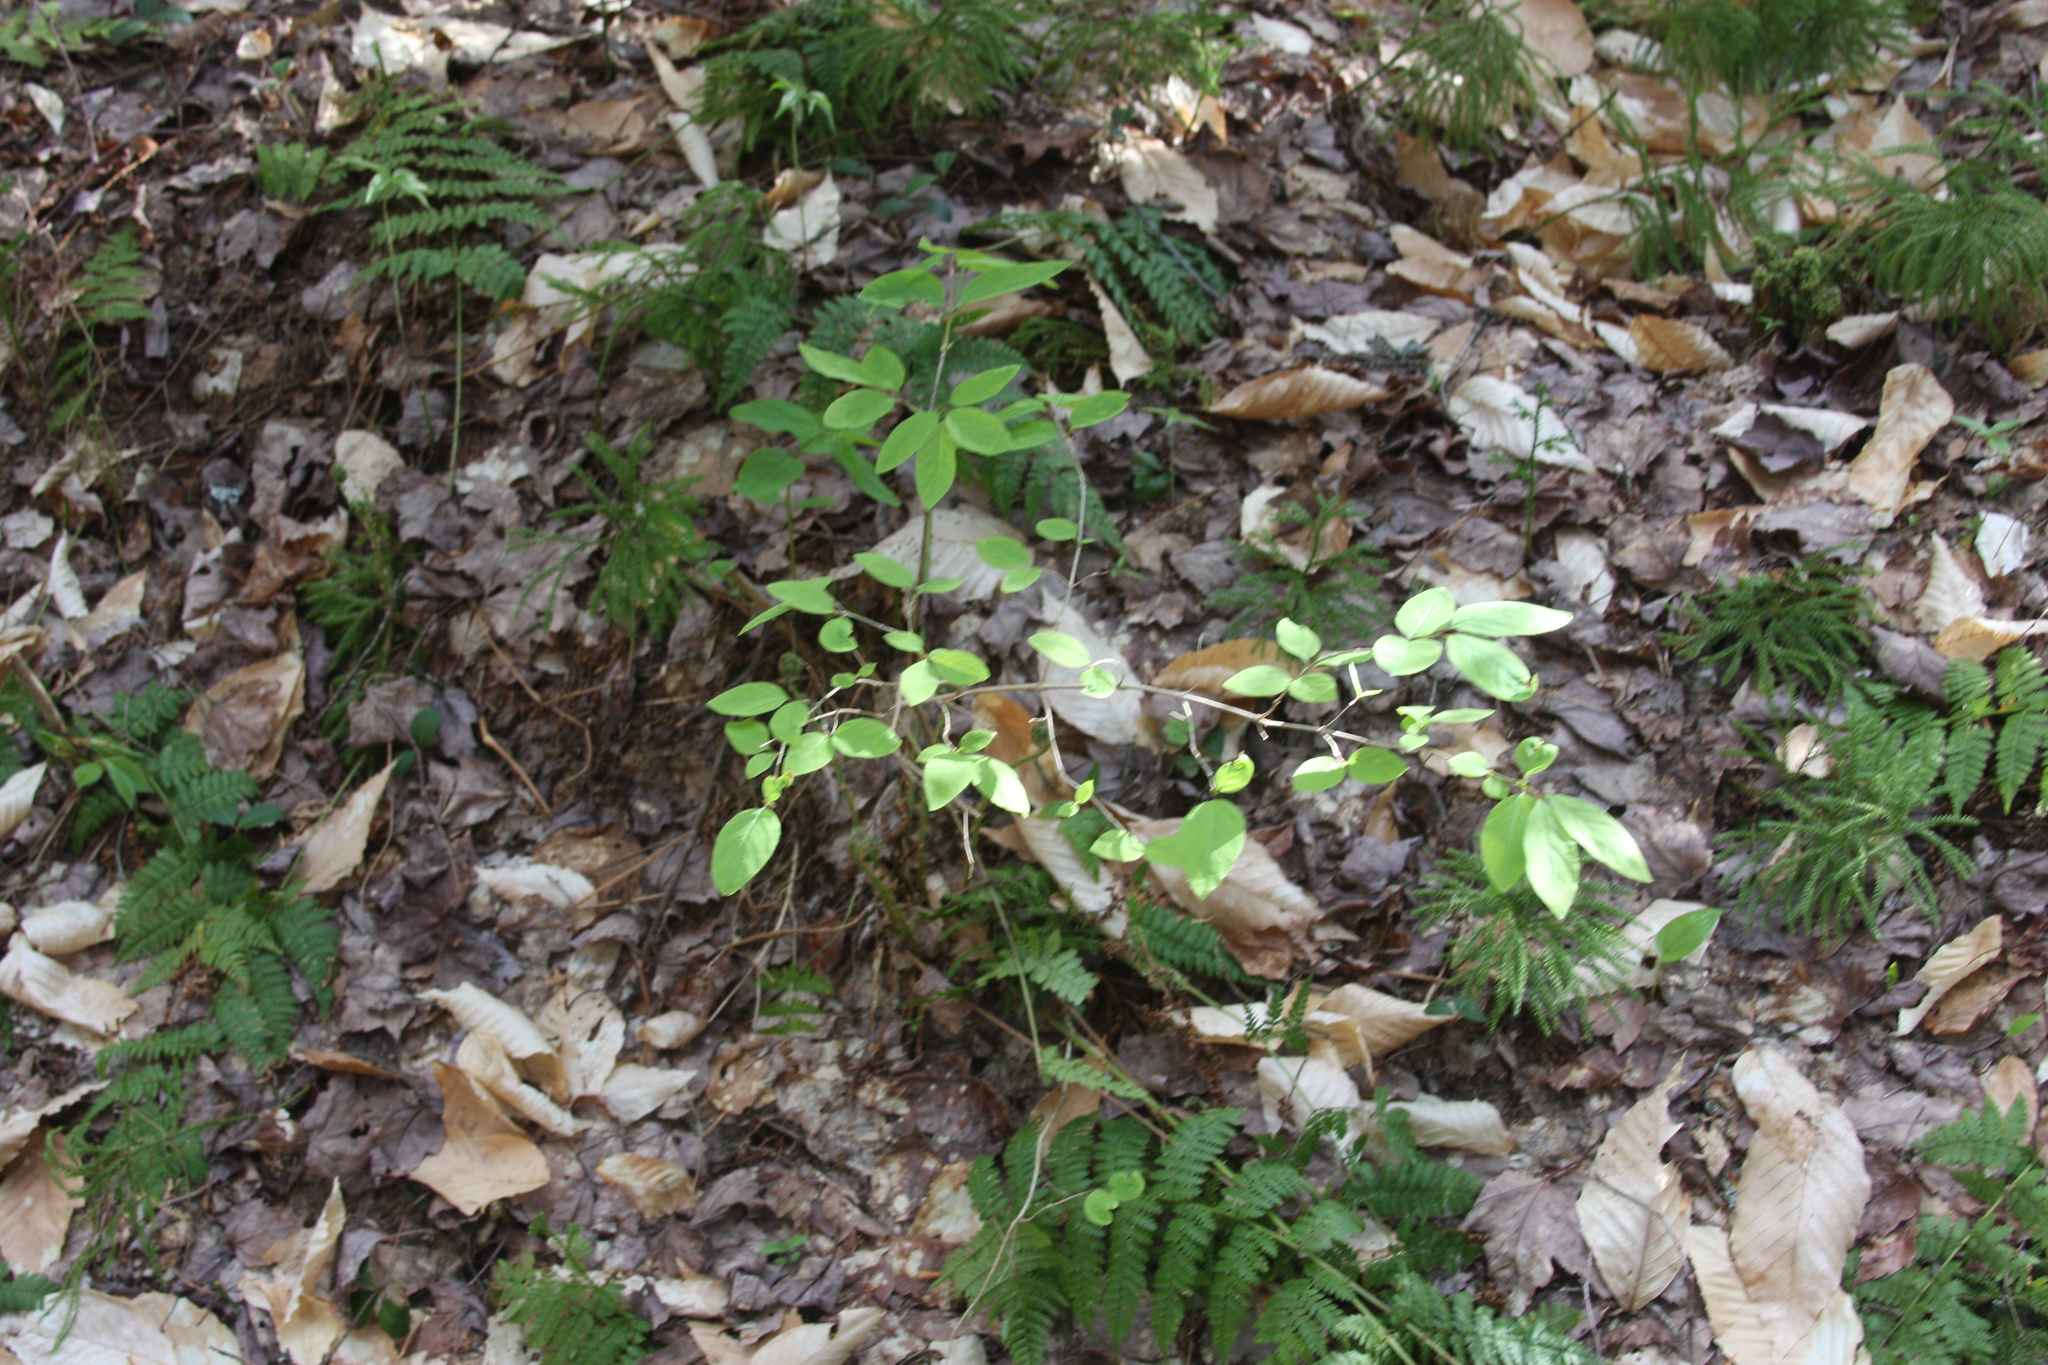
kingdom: Plantae
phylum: Tracheophyta
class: Magnoliopsida
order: Dipsacales
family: Caprifoliaceae
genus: Lonicera
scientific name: Lonicera canadensis
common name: American fly-honeysuckle
